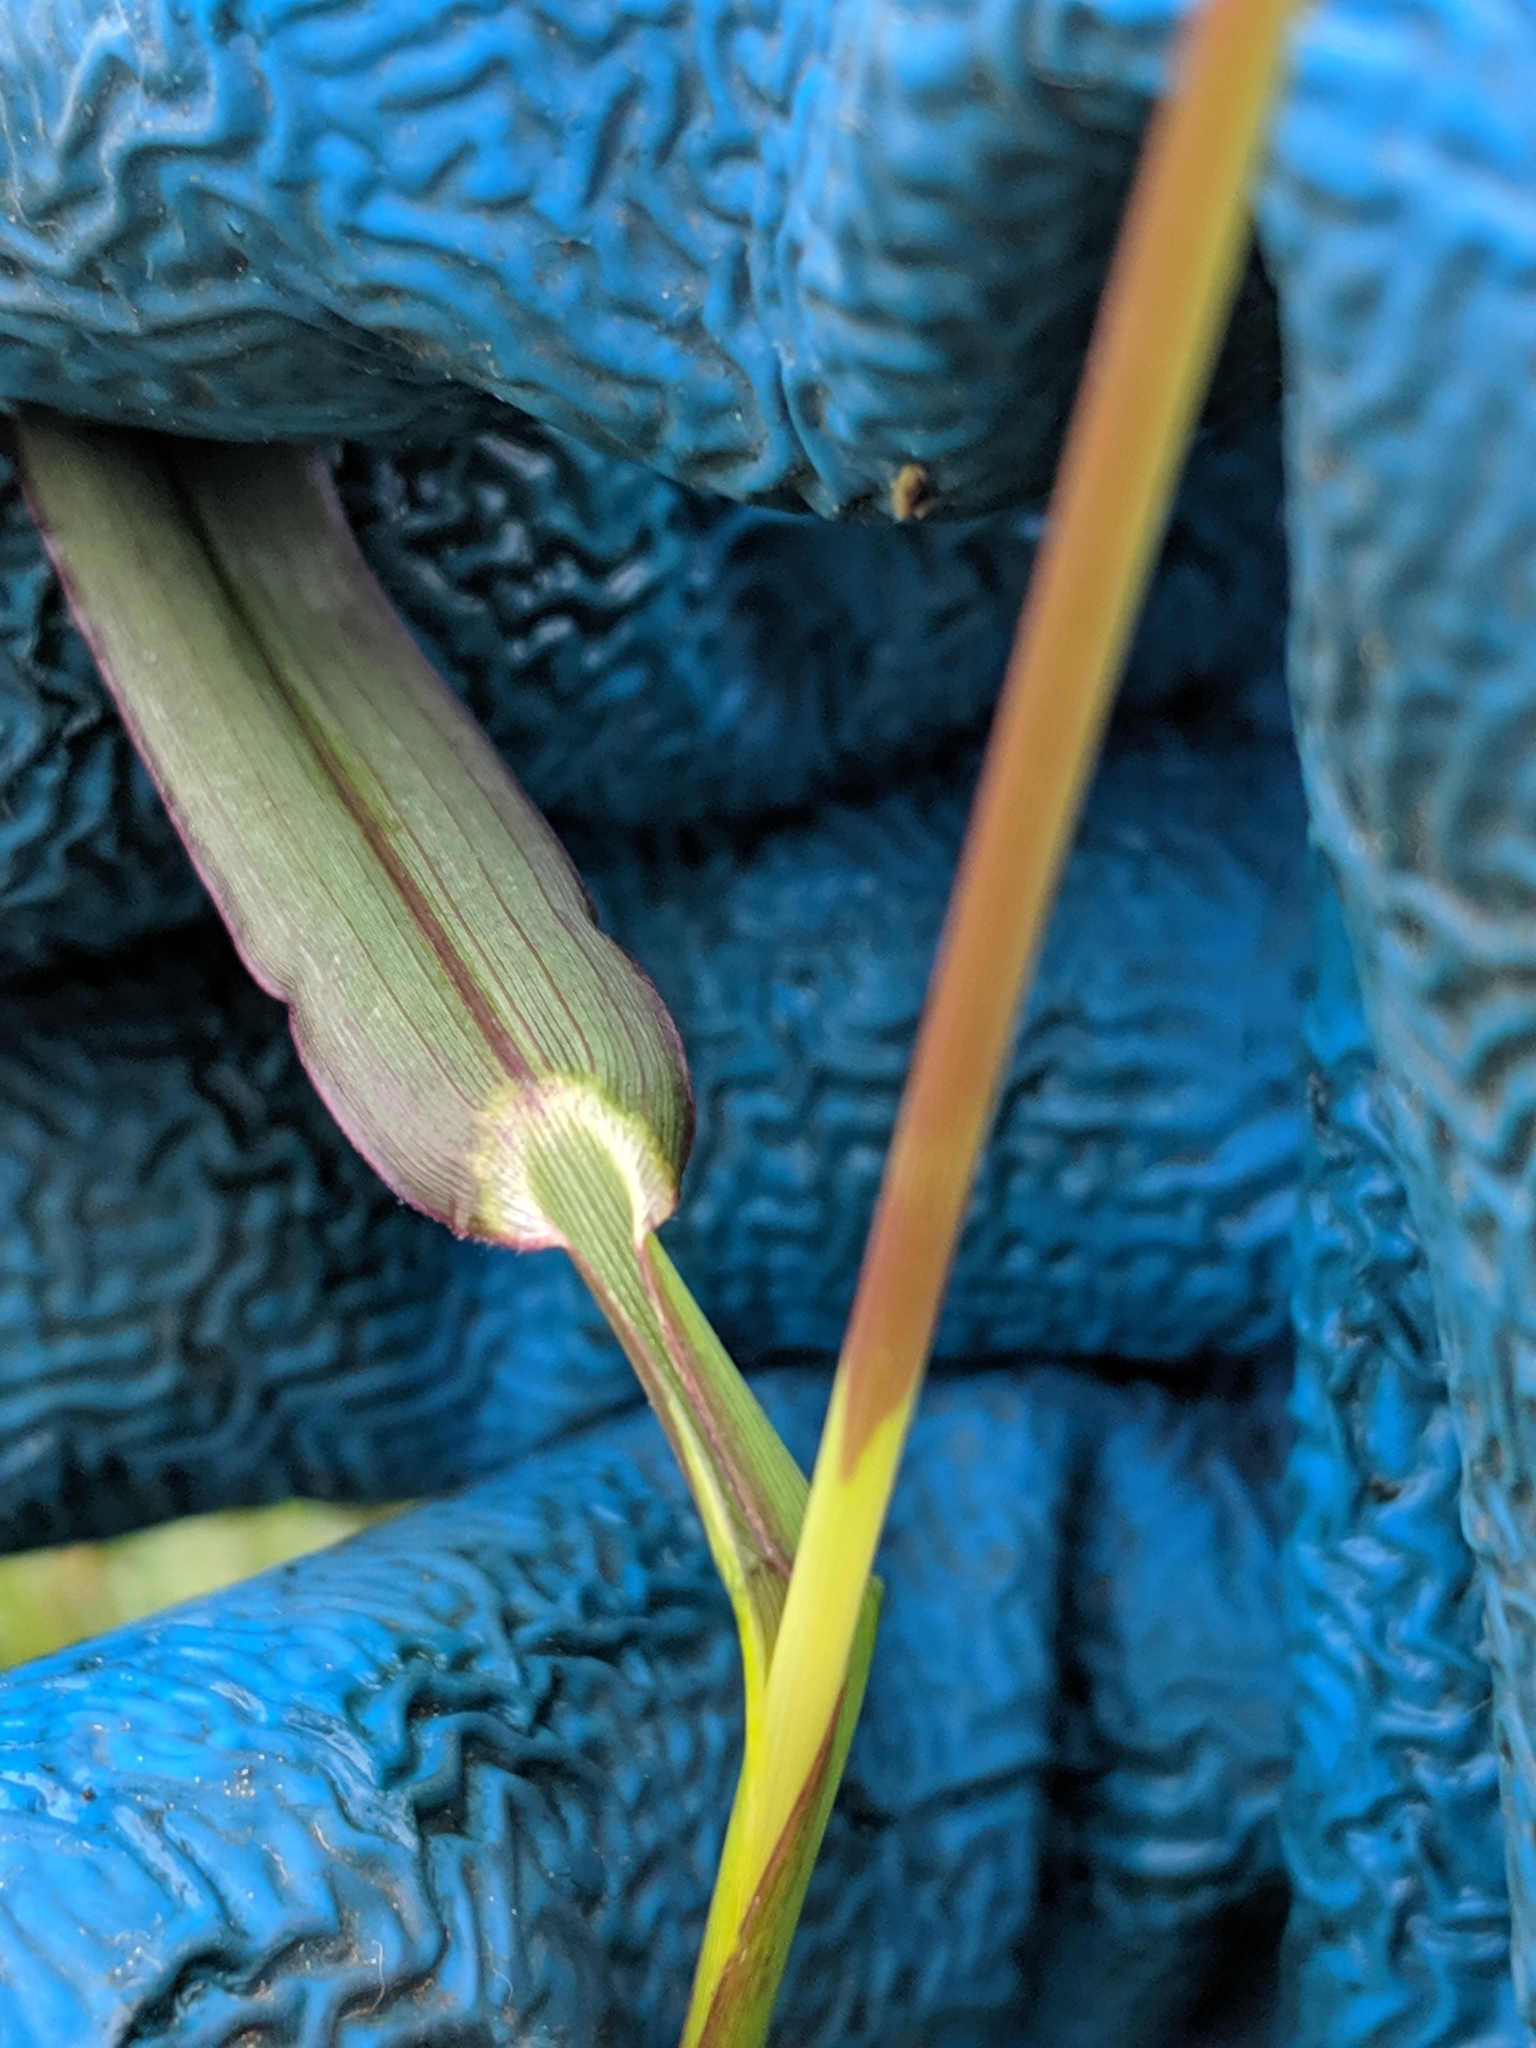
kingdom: Plantae
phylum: Tracheophyta
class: Liliopsida
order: Poales
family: Poaceae
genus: Echinochloa
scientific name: Echinochloa crus-galli
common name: Cockspur
